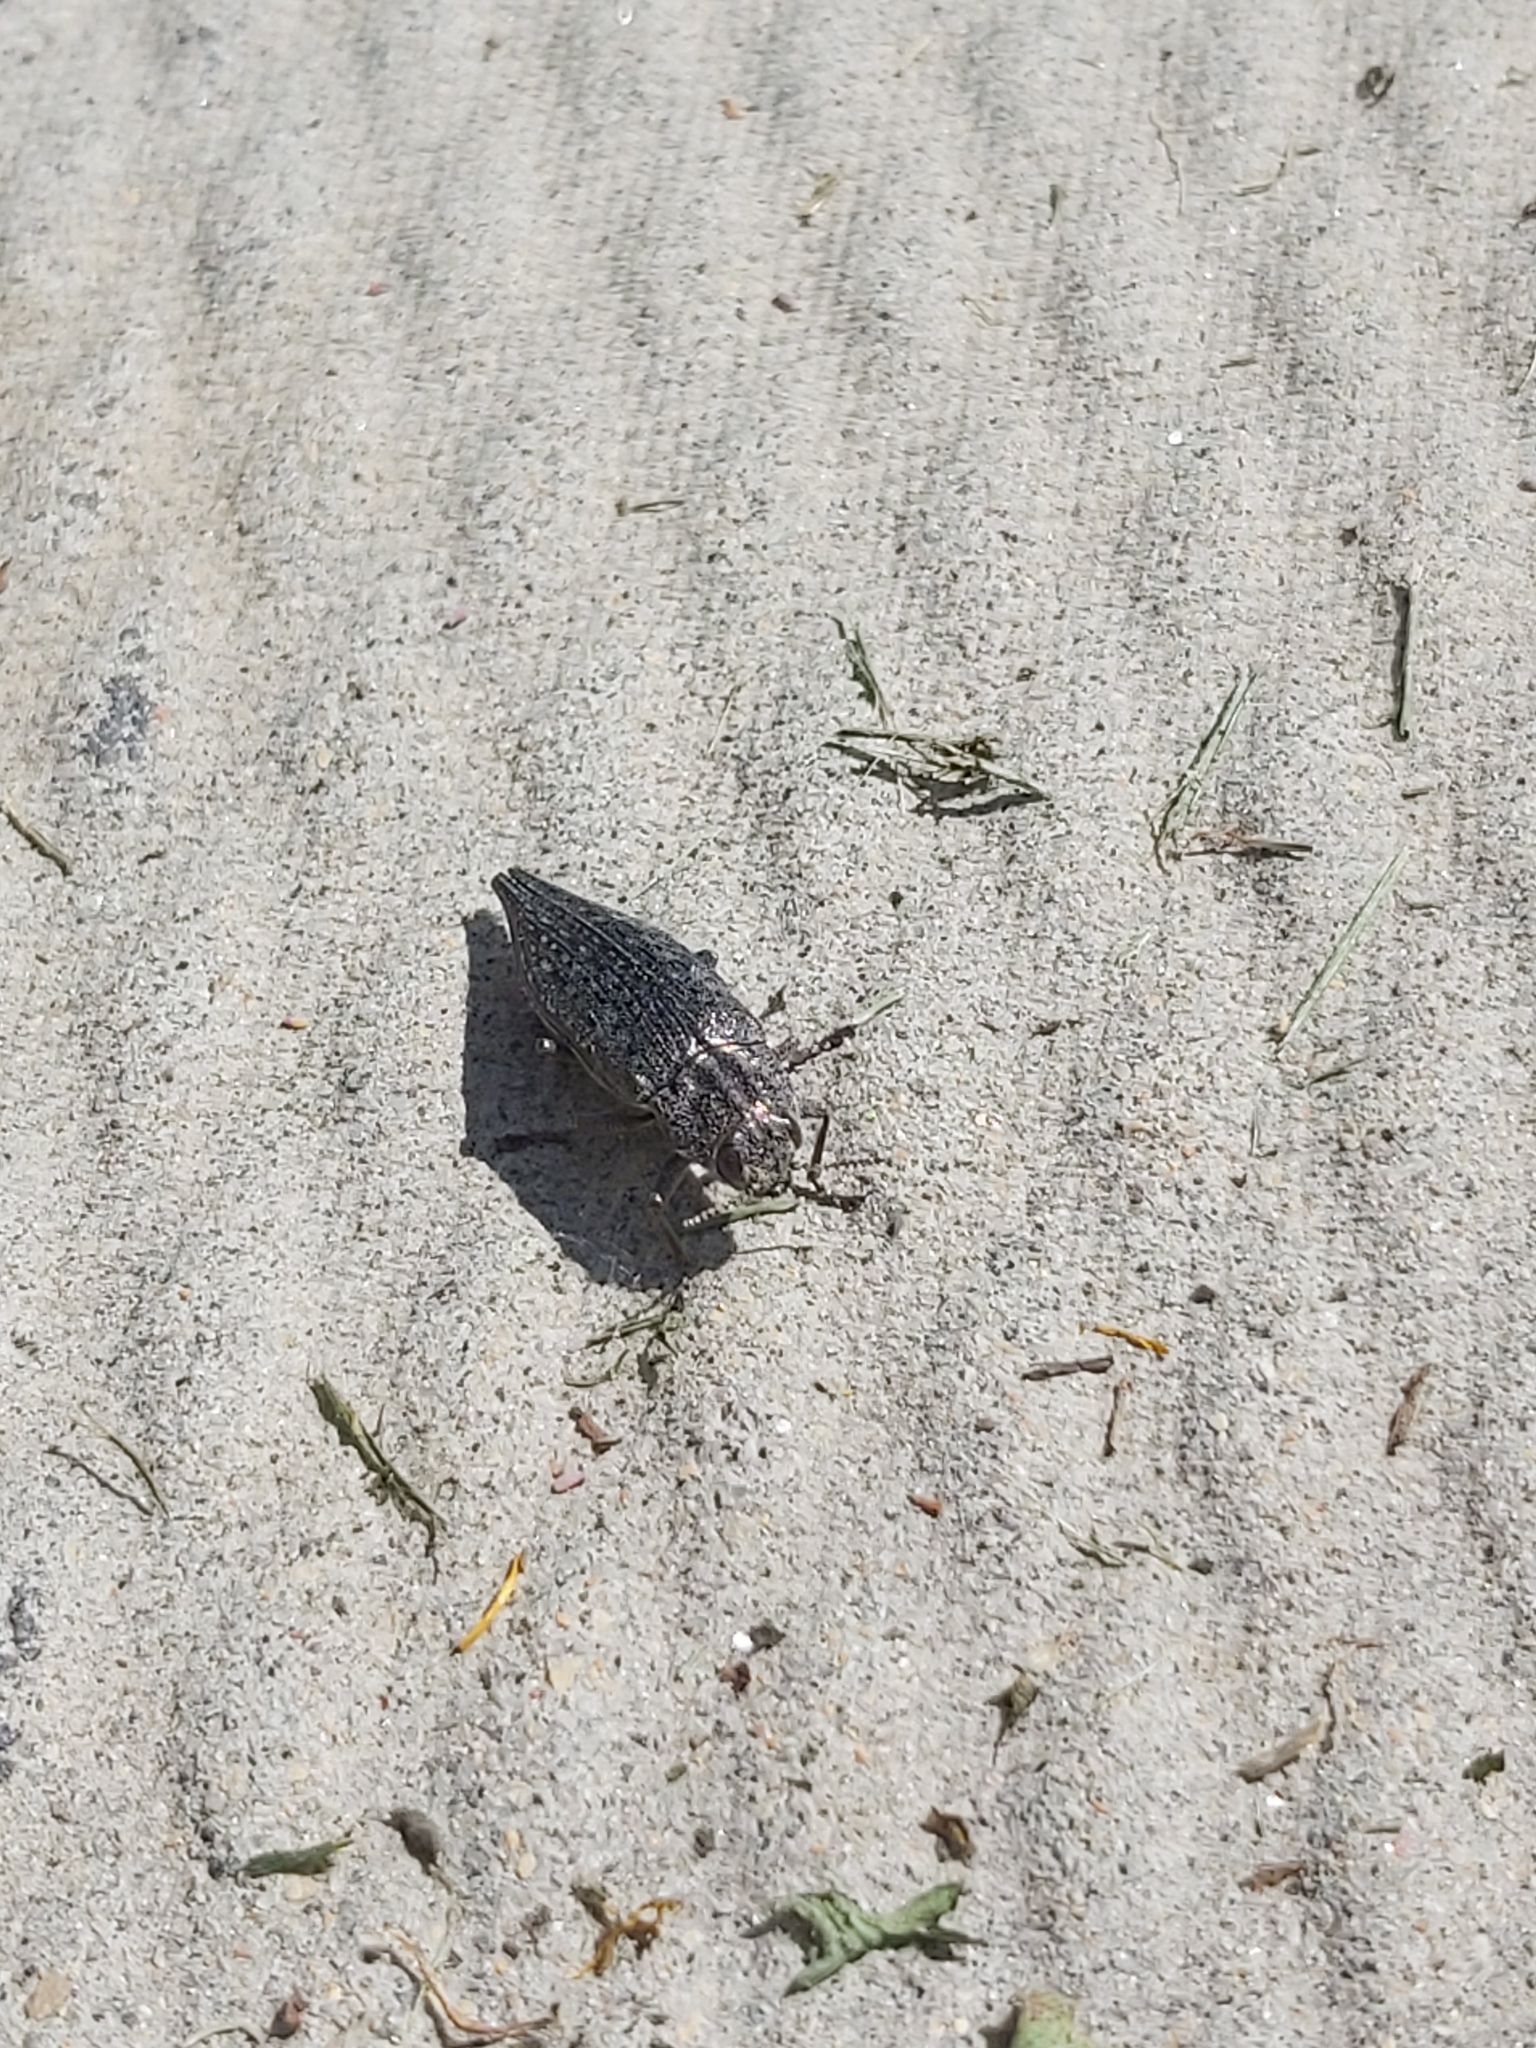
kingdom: Animalia
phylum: Arthropoda
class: Insecta
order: Coleoptera
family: Buprestidae
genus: Dicerca
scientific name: Dicerca tenebrica
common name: Flat-headed poplar borer
